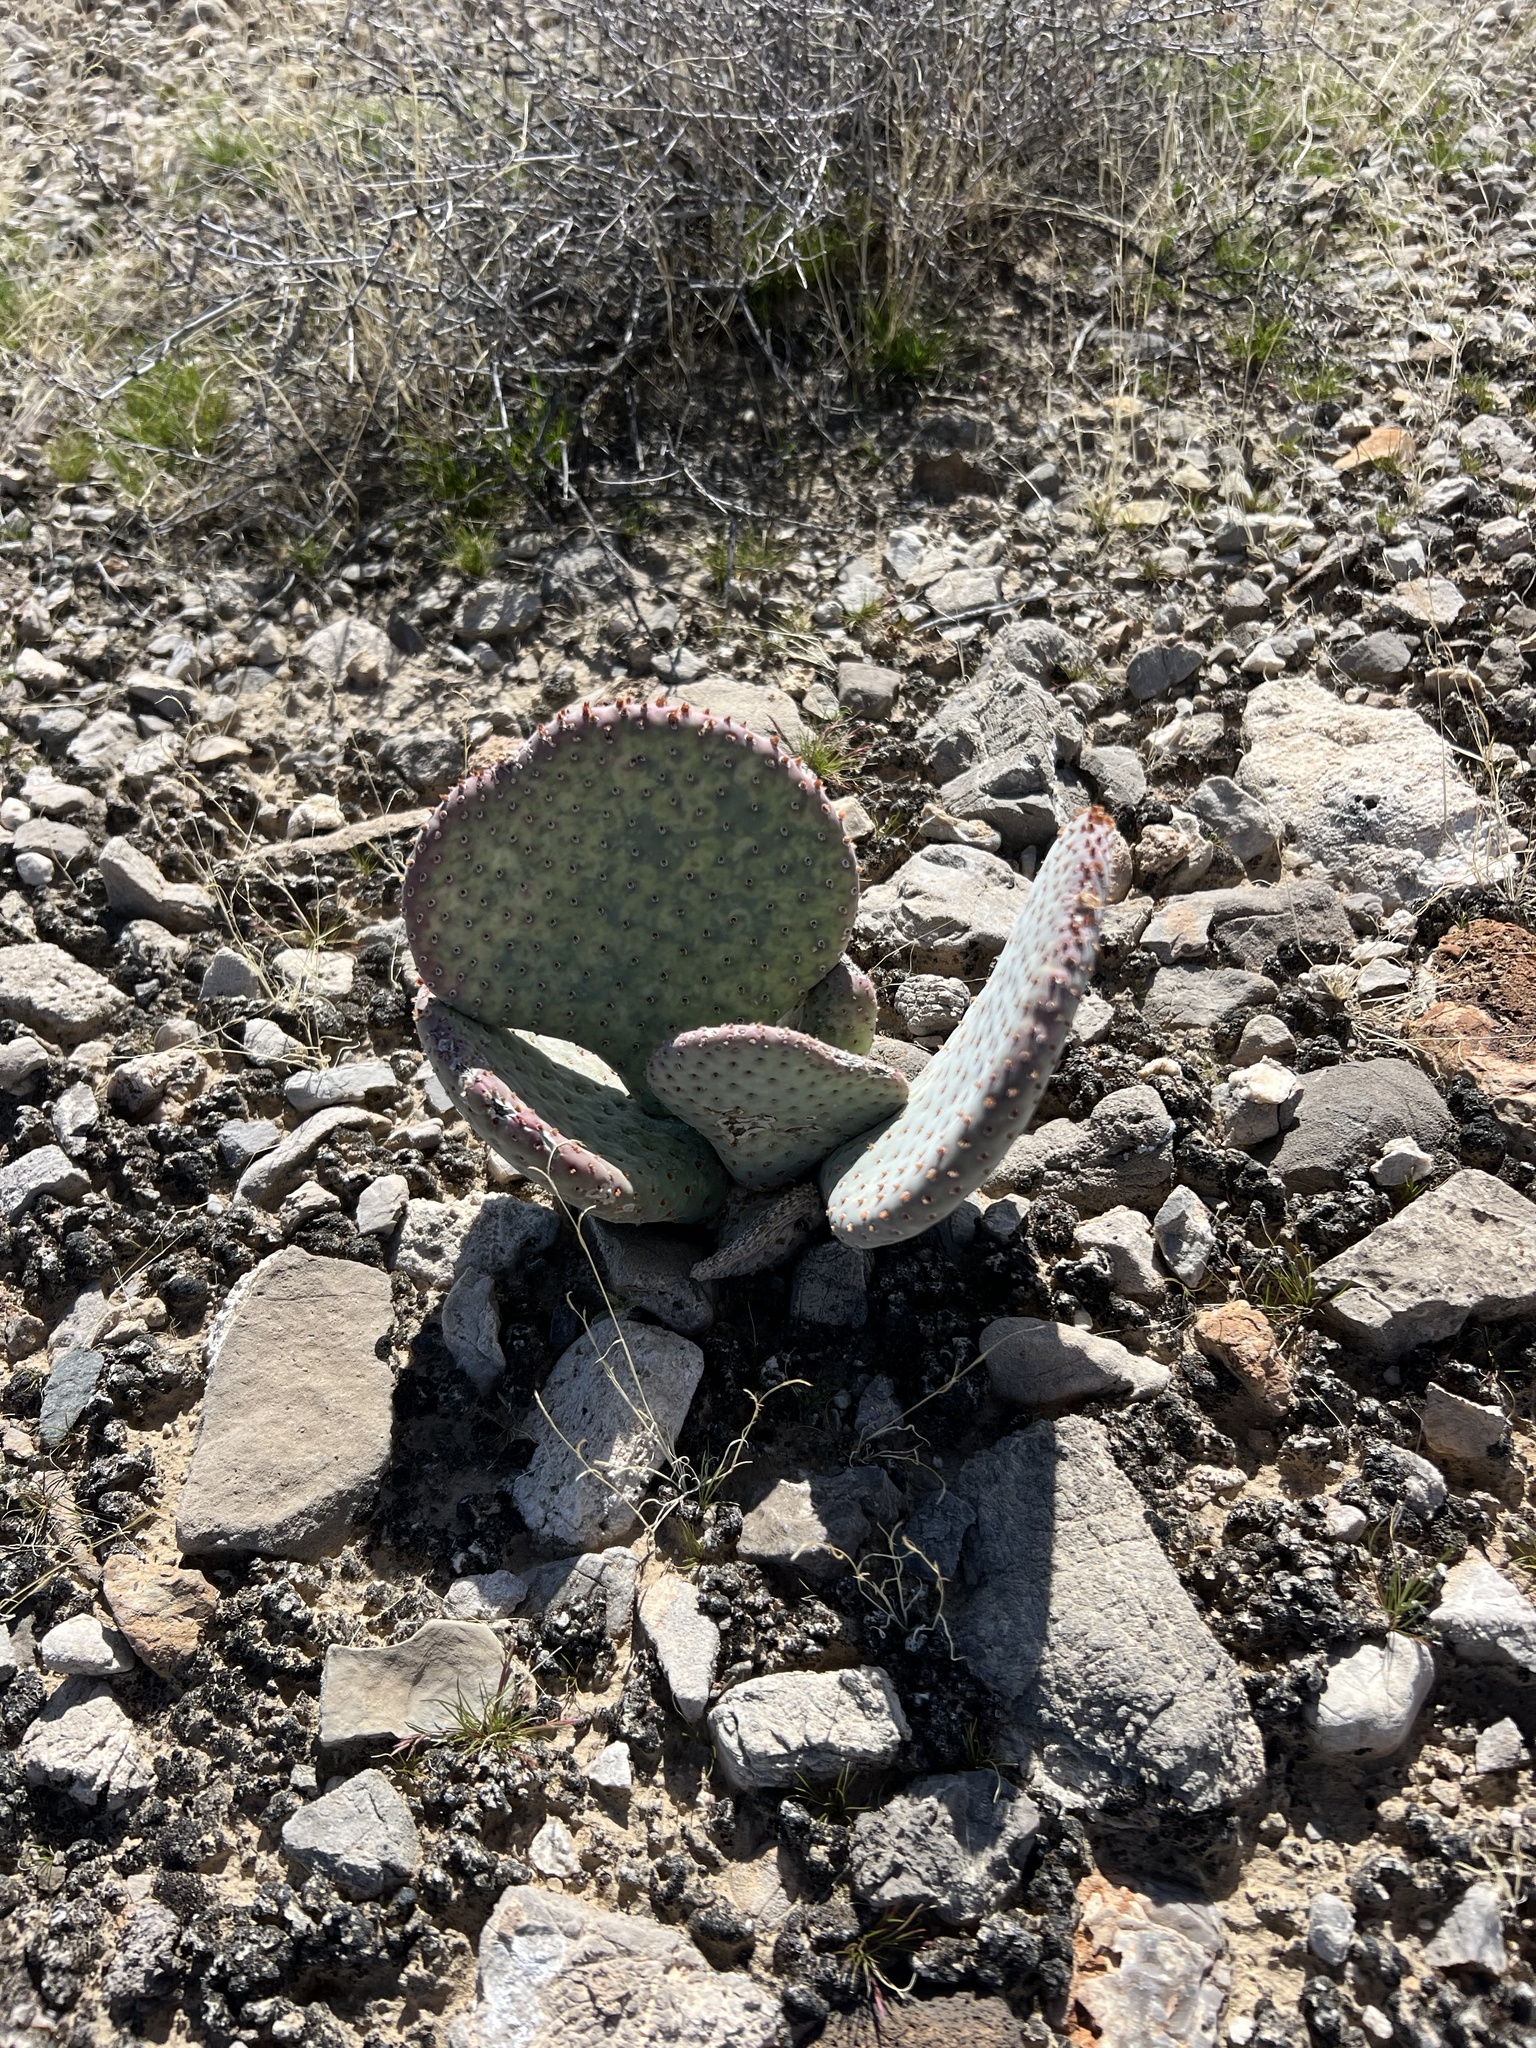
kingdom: Plantae
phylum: Tracheophyta
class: Magnoliopsida
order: Caryophyllales
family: Cactaceae
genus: Opuntia
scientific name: Opuntia basilaris
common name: Beavertail prickly-pear
